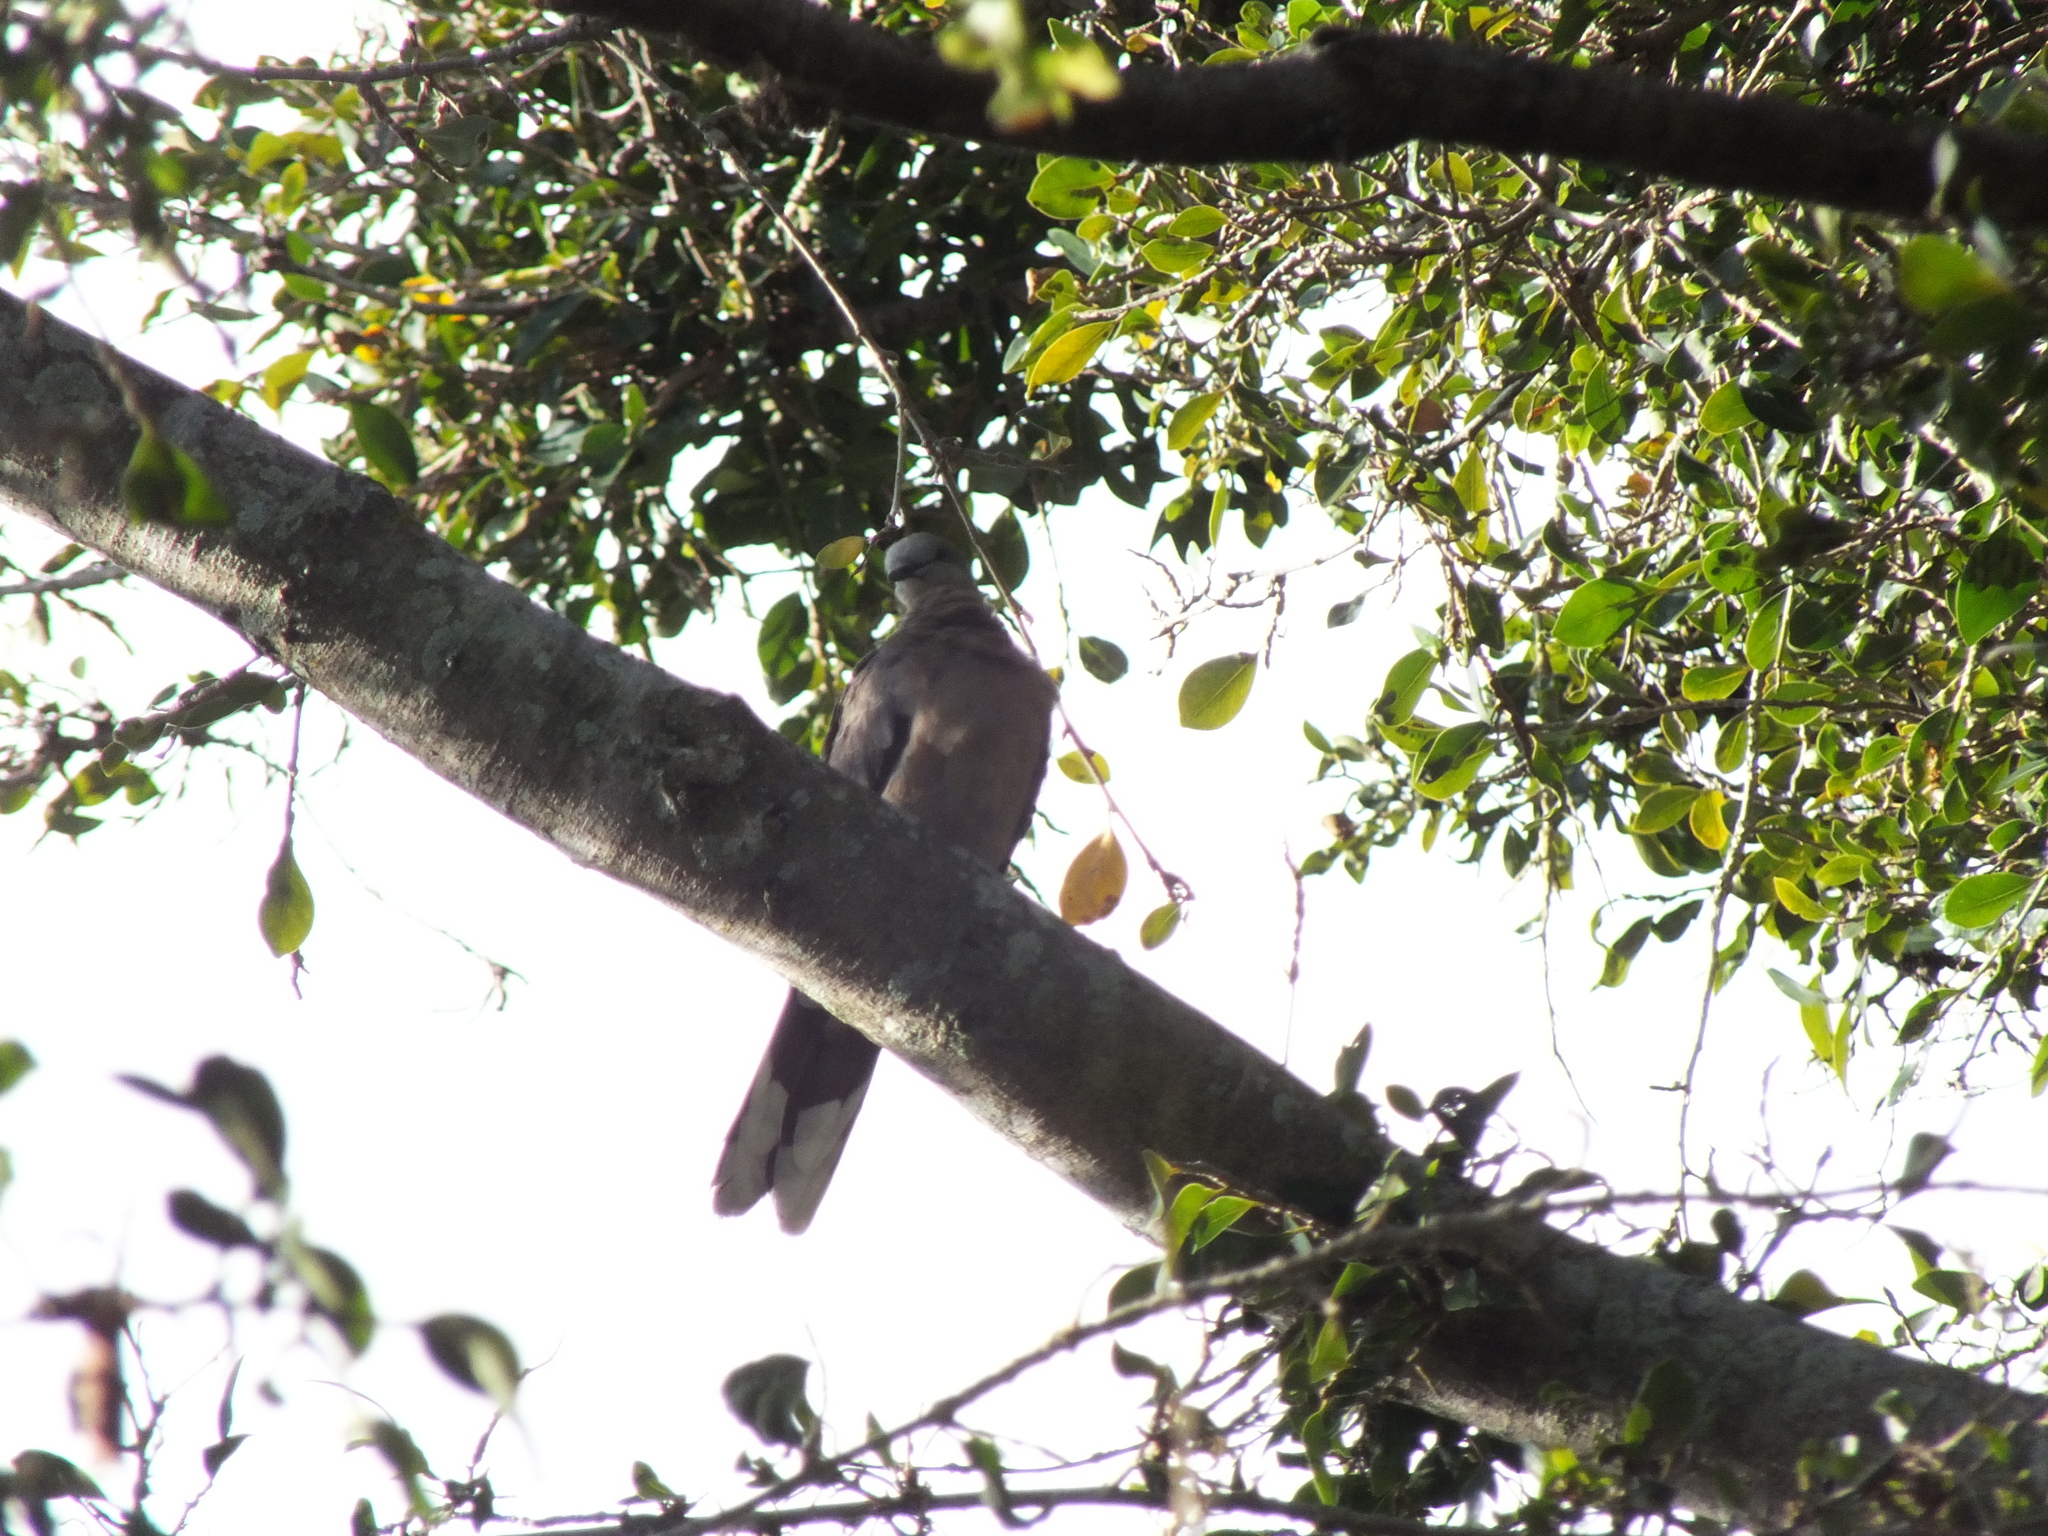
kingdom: Animalia
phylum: Chordata
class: Aves
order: Columbiformes
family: Columbidae
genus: Spilopelia
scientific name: Spilopelia chinensis
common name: Spotted dove
